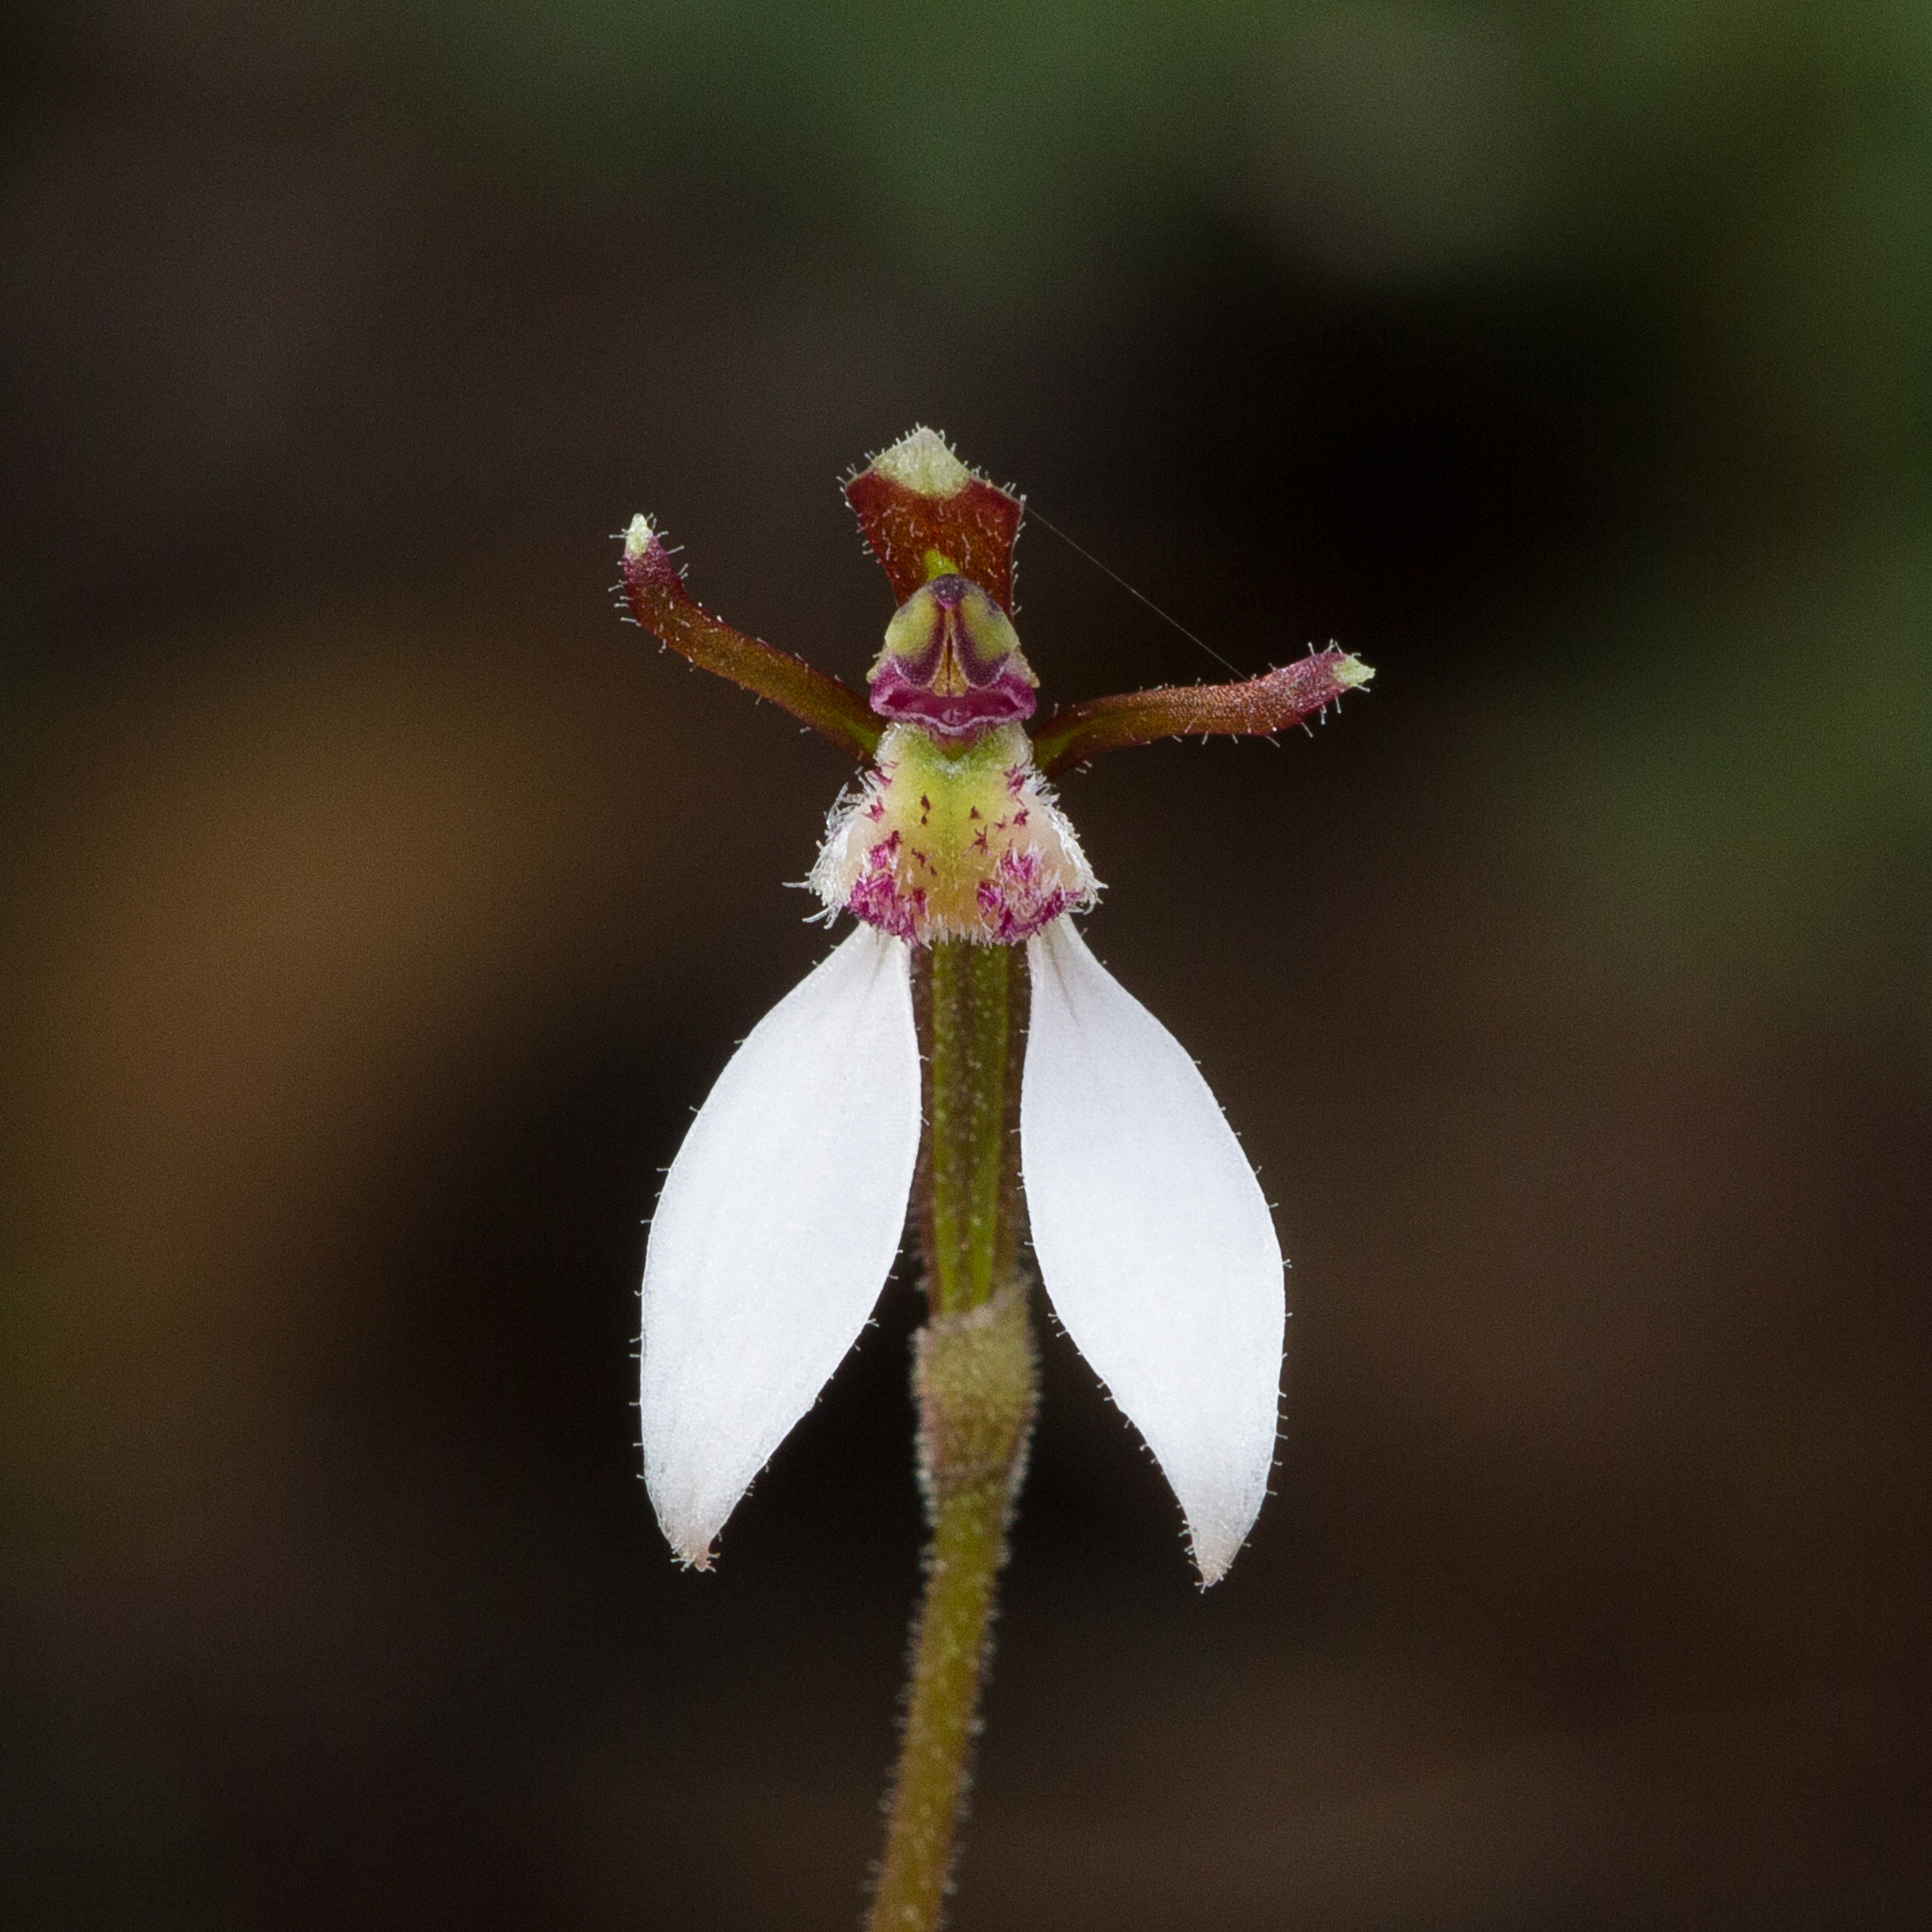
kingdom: Plantae
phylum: Tracheophyta
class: Liliopsida
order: Asparagales
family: Orchidaceae
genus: Eriochilus
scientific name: Eriochilus collinus
